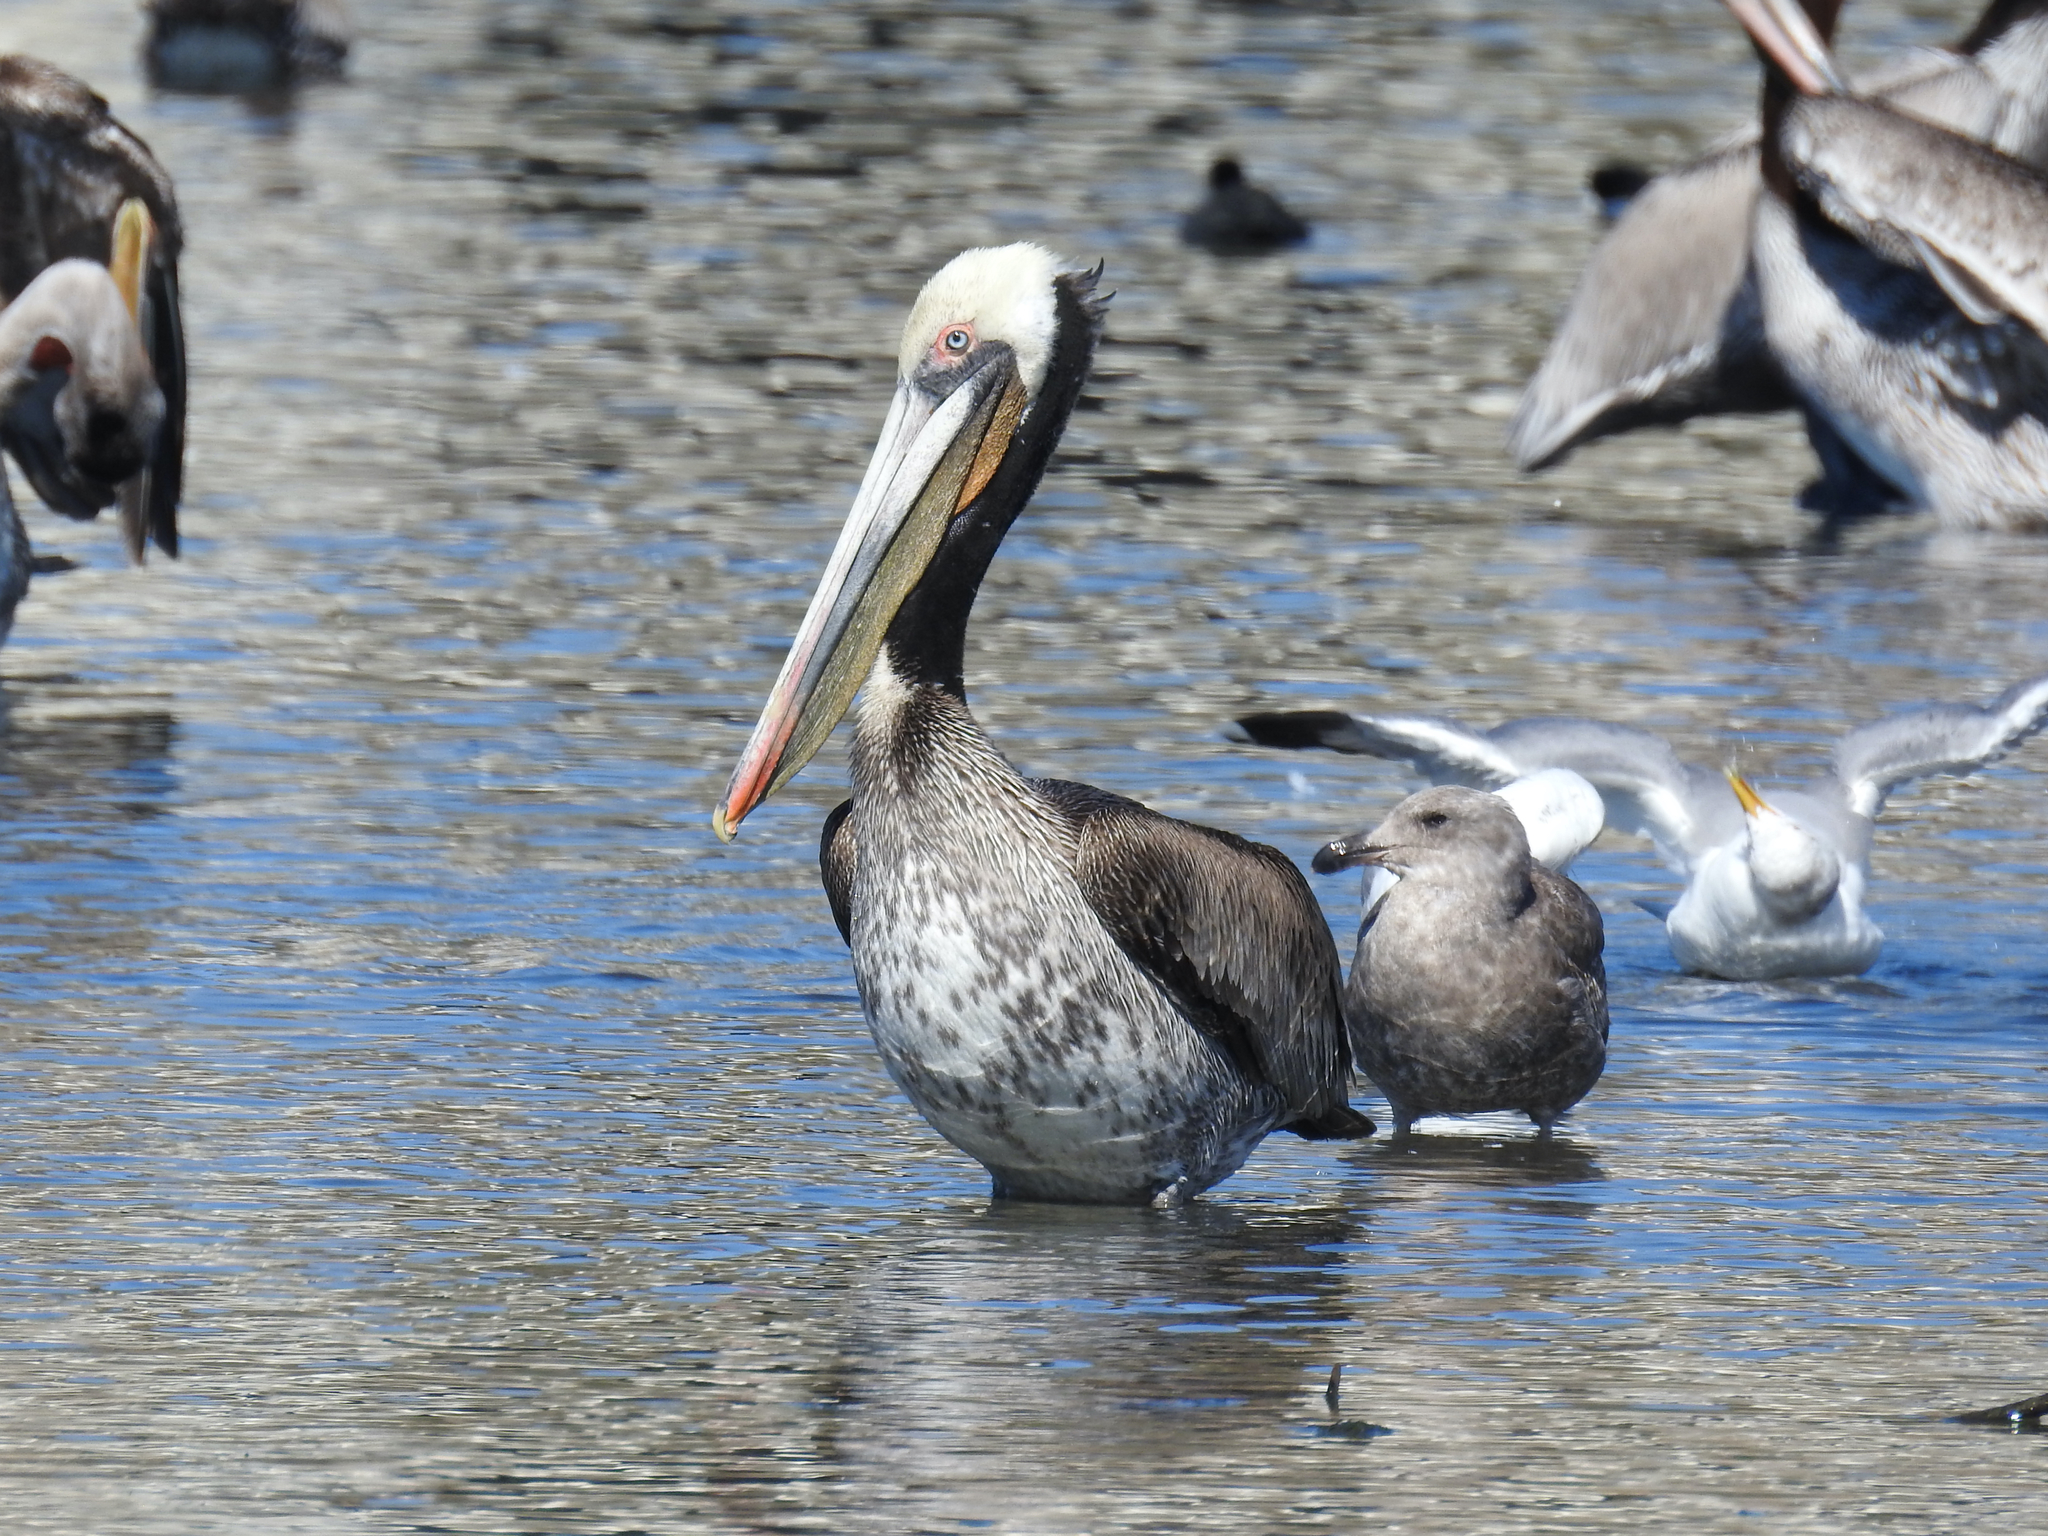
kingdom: Animalia
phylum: Chordata
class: Aves
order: Pelecaniformes
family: Pelecanidae
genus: Pelecanus
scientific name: Pelecanus occidentalis
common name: Brown pelican
